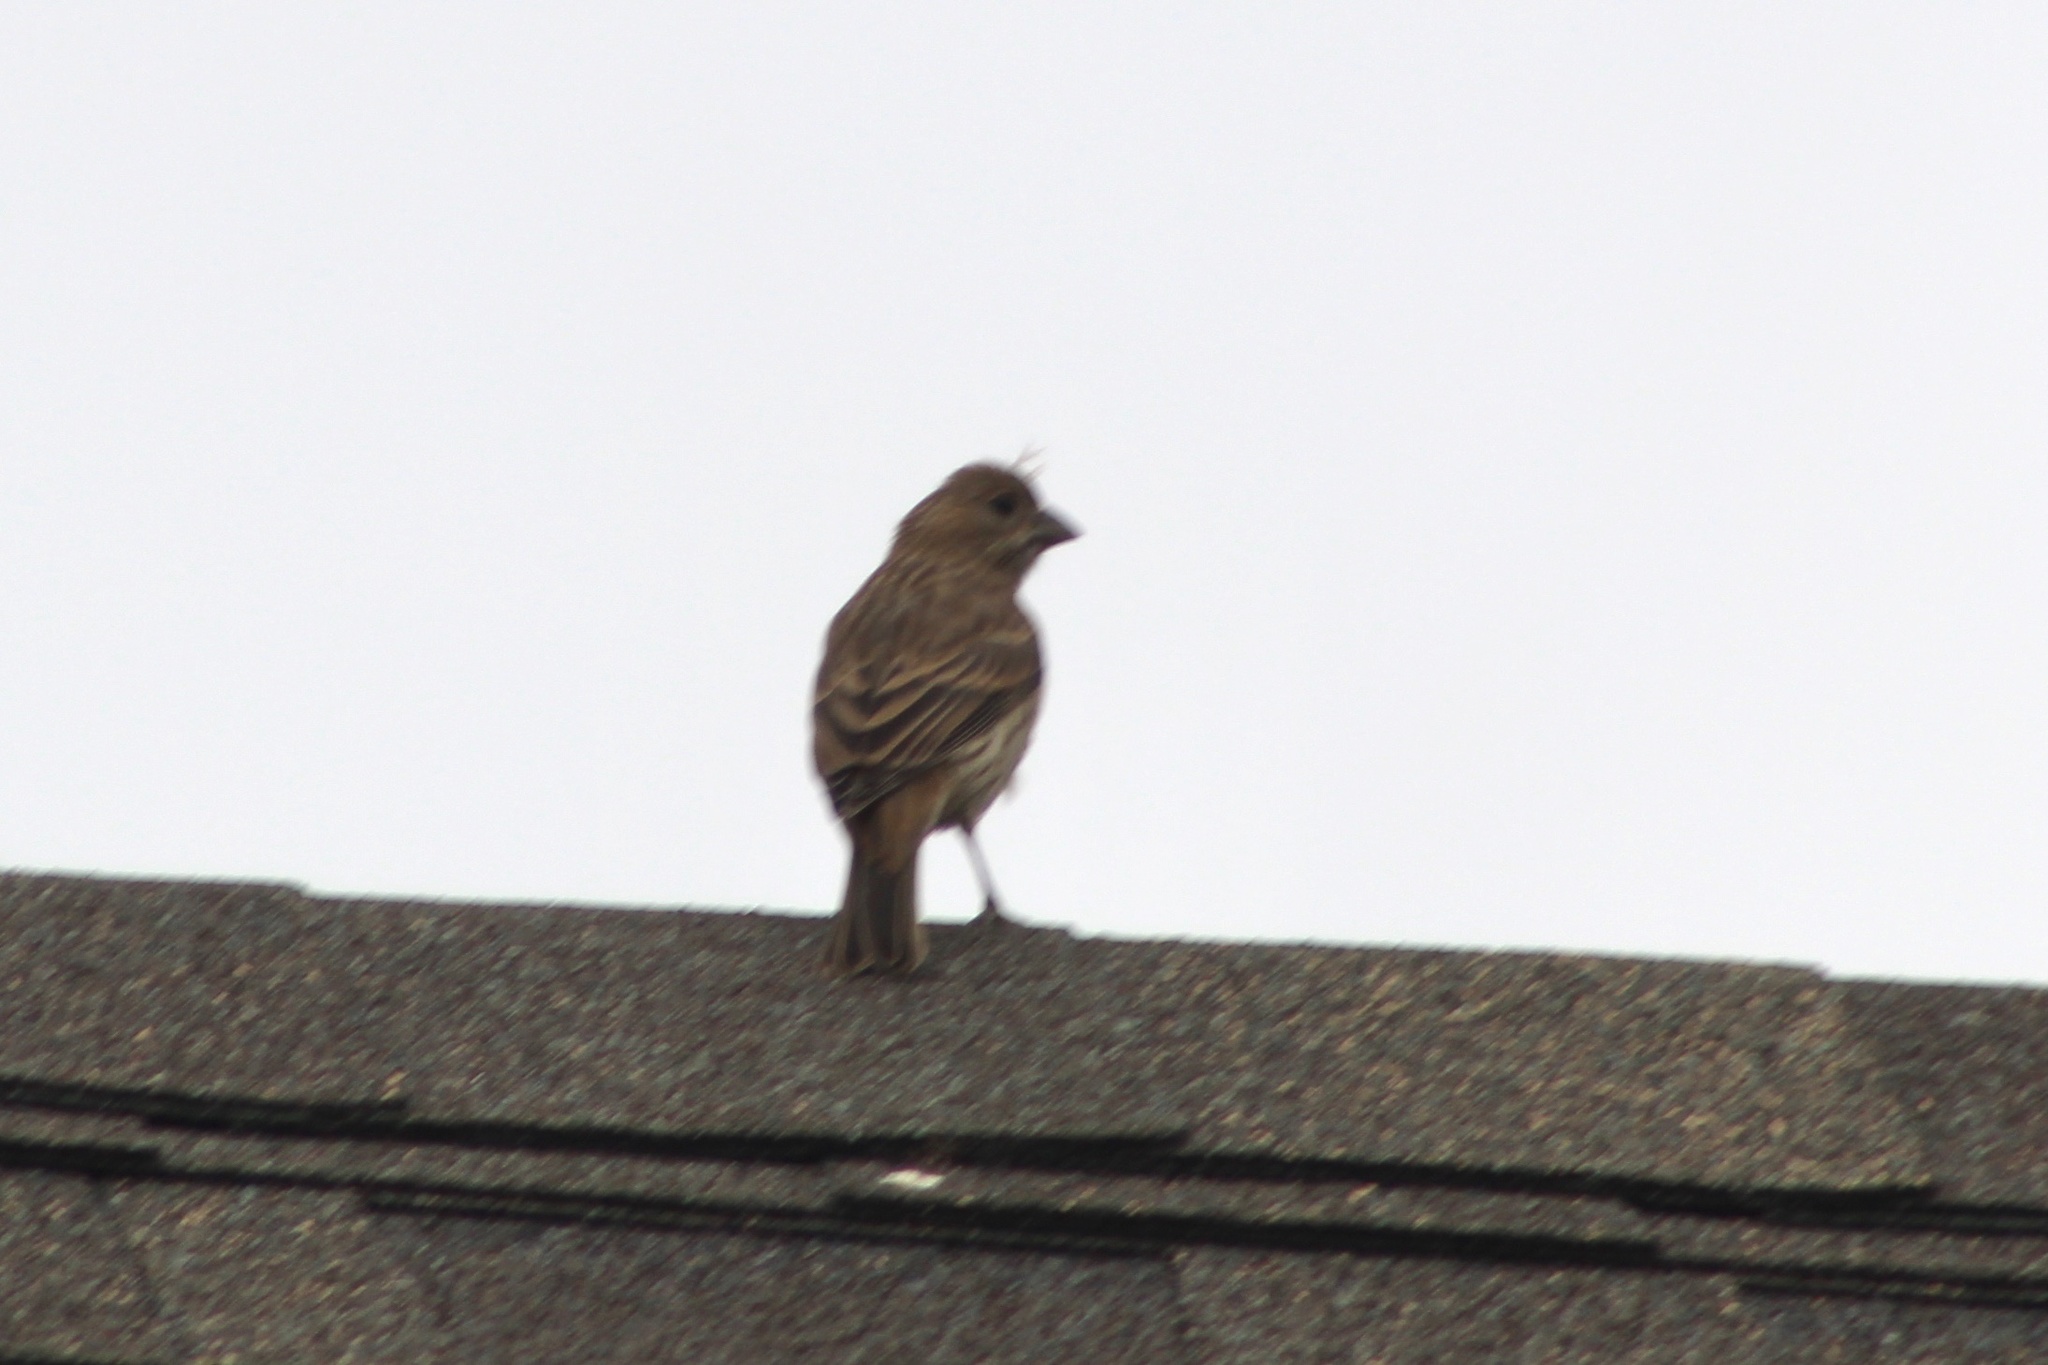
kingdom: Animalia
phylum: Chordata
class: Aves
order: Passeriformes
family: Fringillidae
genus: Haemorhous
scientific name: Haemorhous mexicanus
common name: House finch
